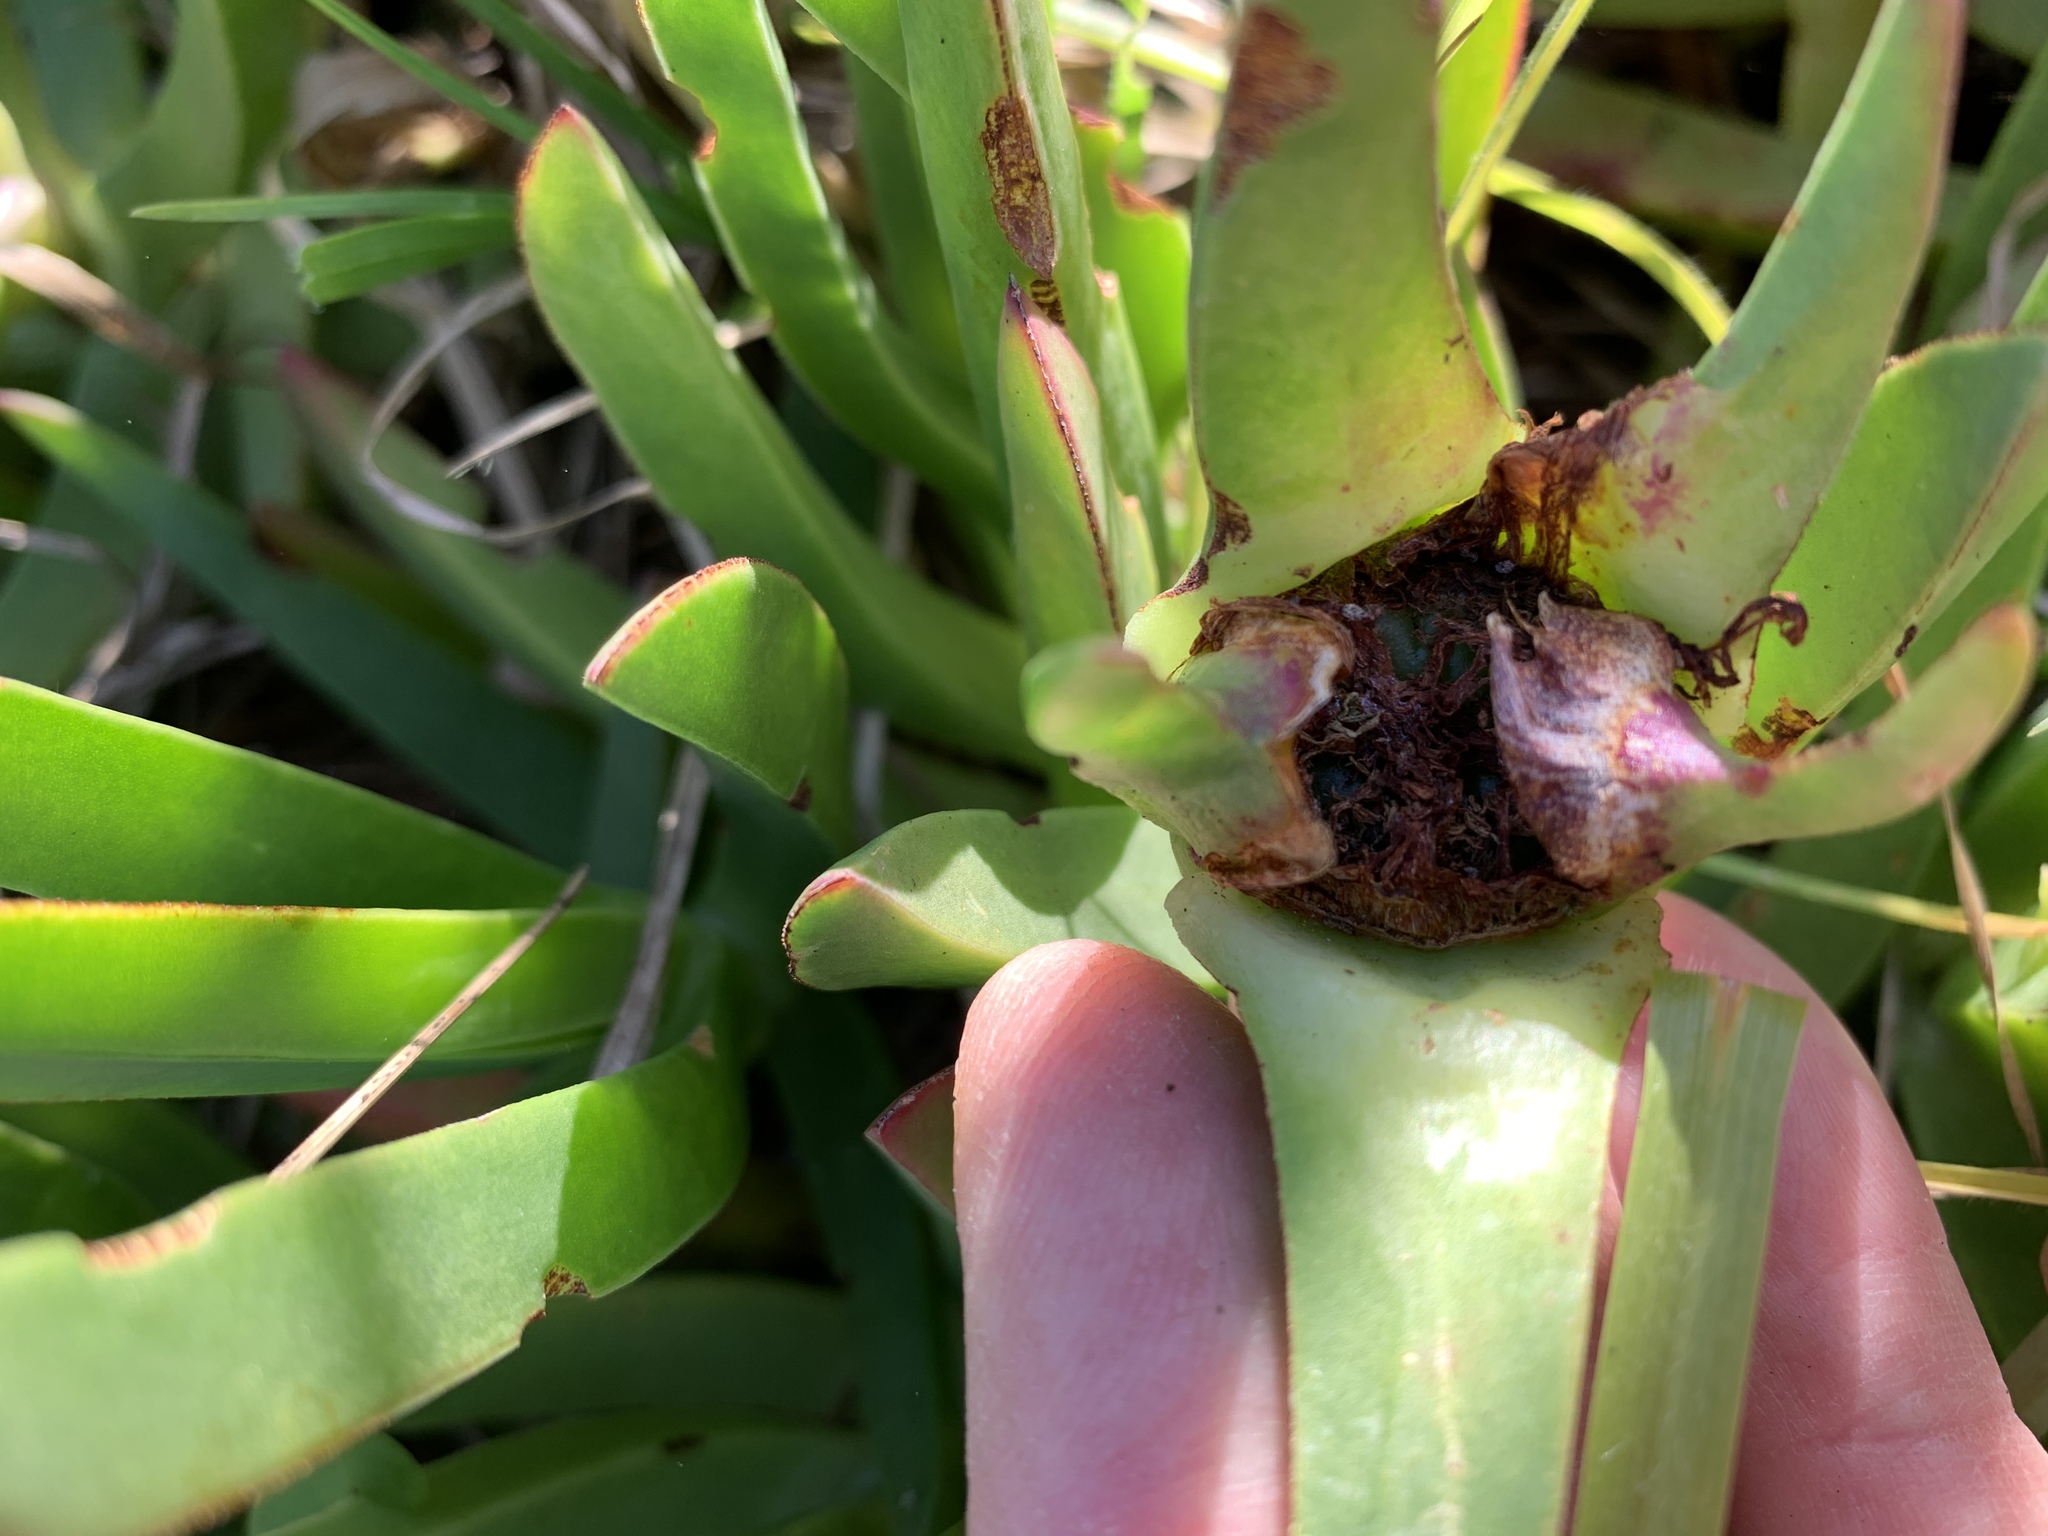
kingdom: Plantae
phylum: Tracheophyta
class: Magnoliopsida
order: Caryophyllales
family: Aizoaceae
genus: Carpobrotus
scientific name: Carpobrotus edulis
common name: Hottentot-fig
